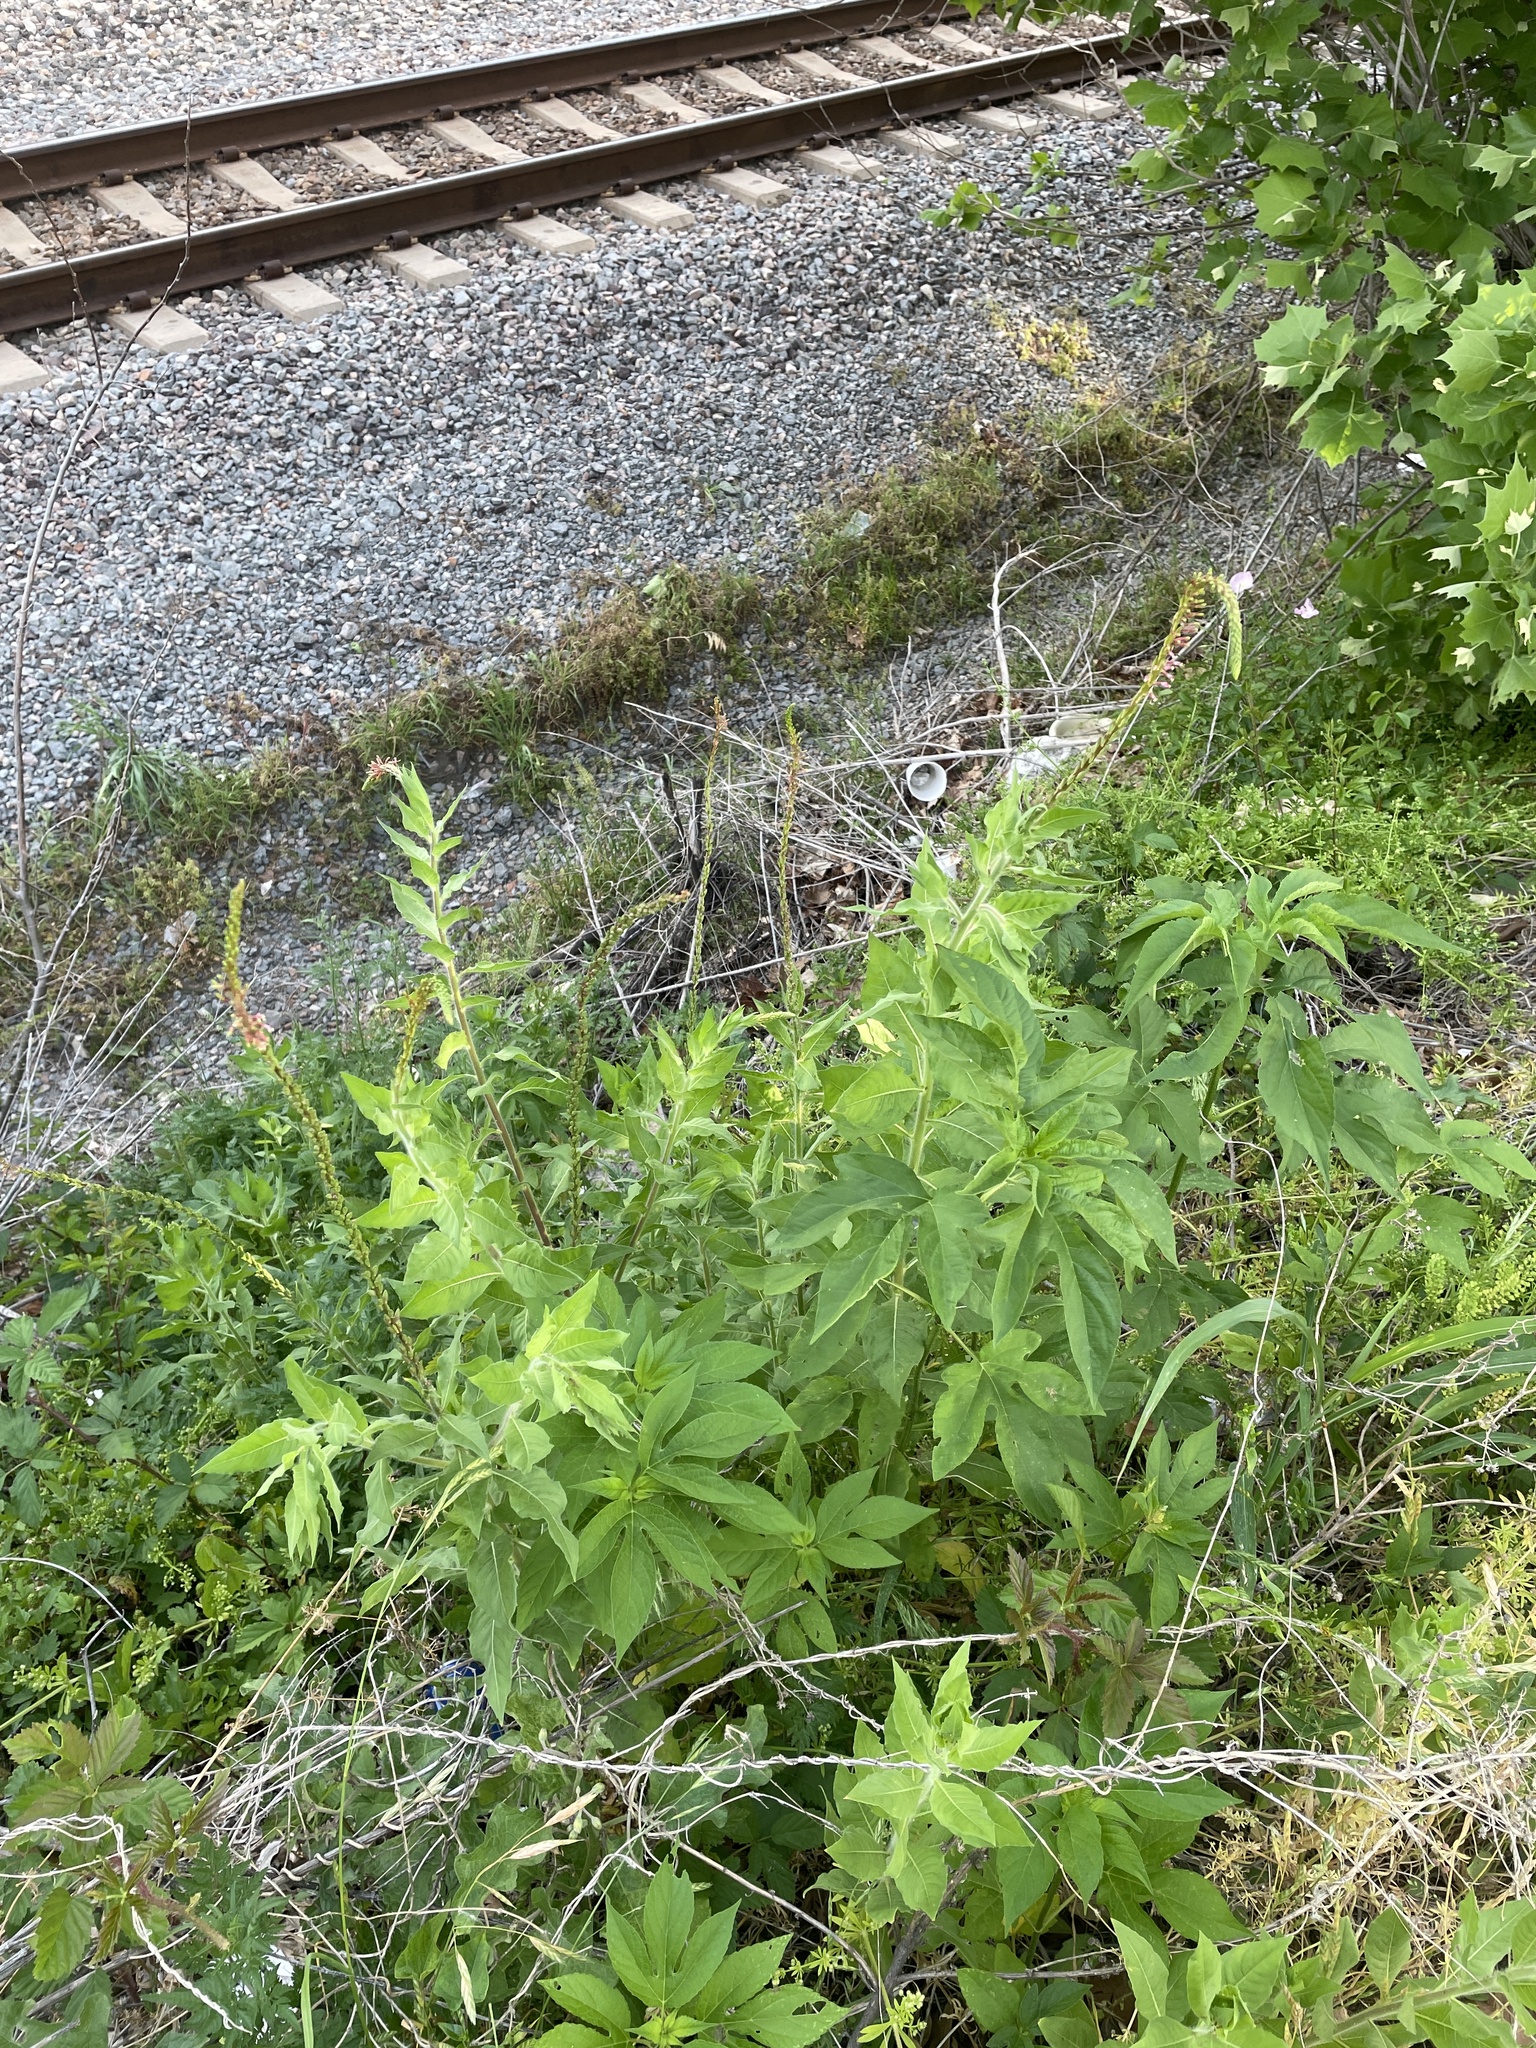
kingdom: Plantae
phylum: Tracheophyta
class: Magnoliopsida
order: Myrtales
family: Onagraceae
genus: Oenothera
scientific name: Oenothera curtiflora
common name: Velvetweed
